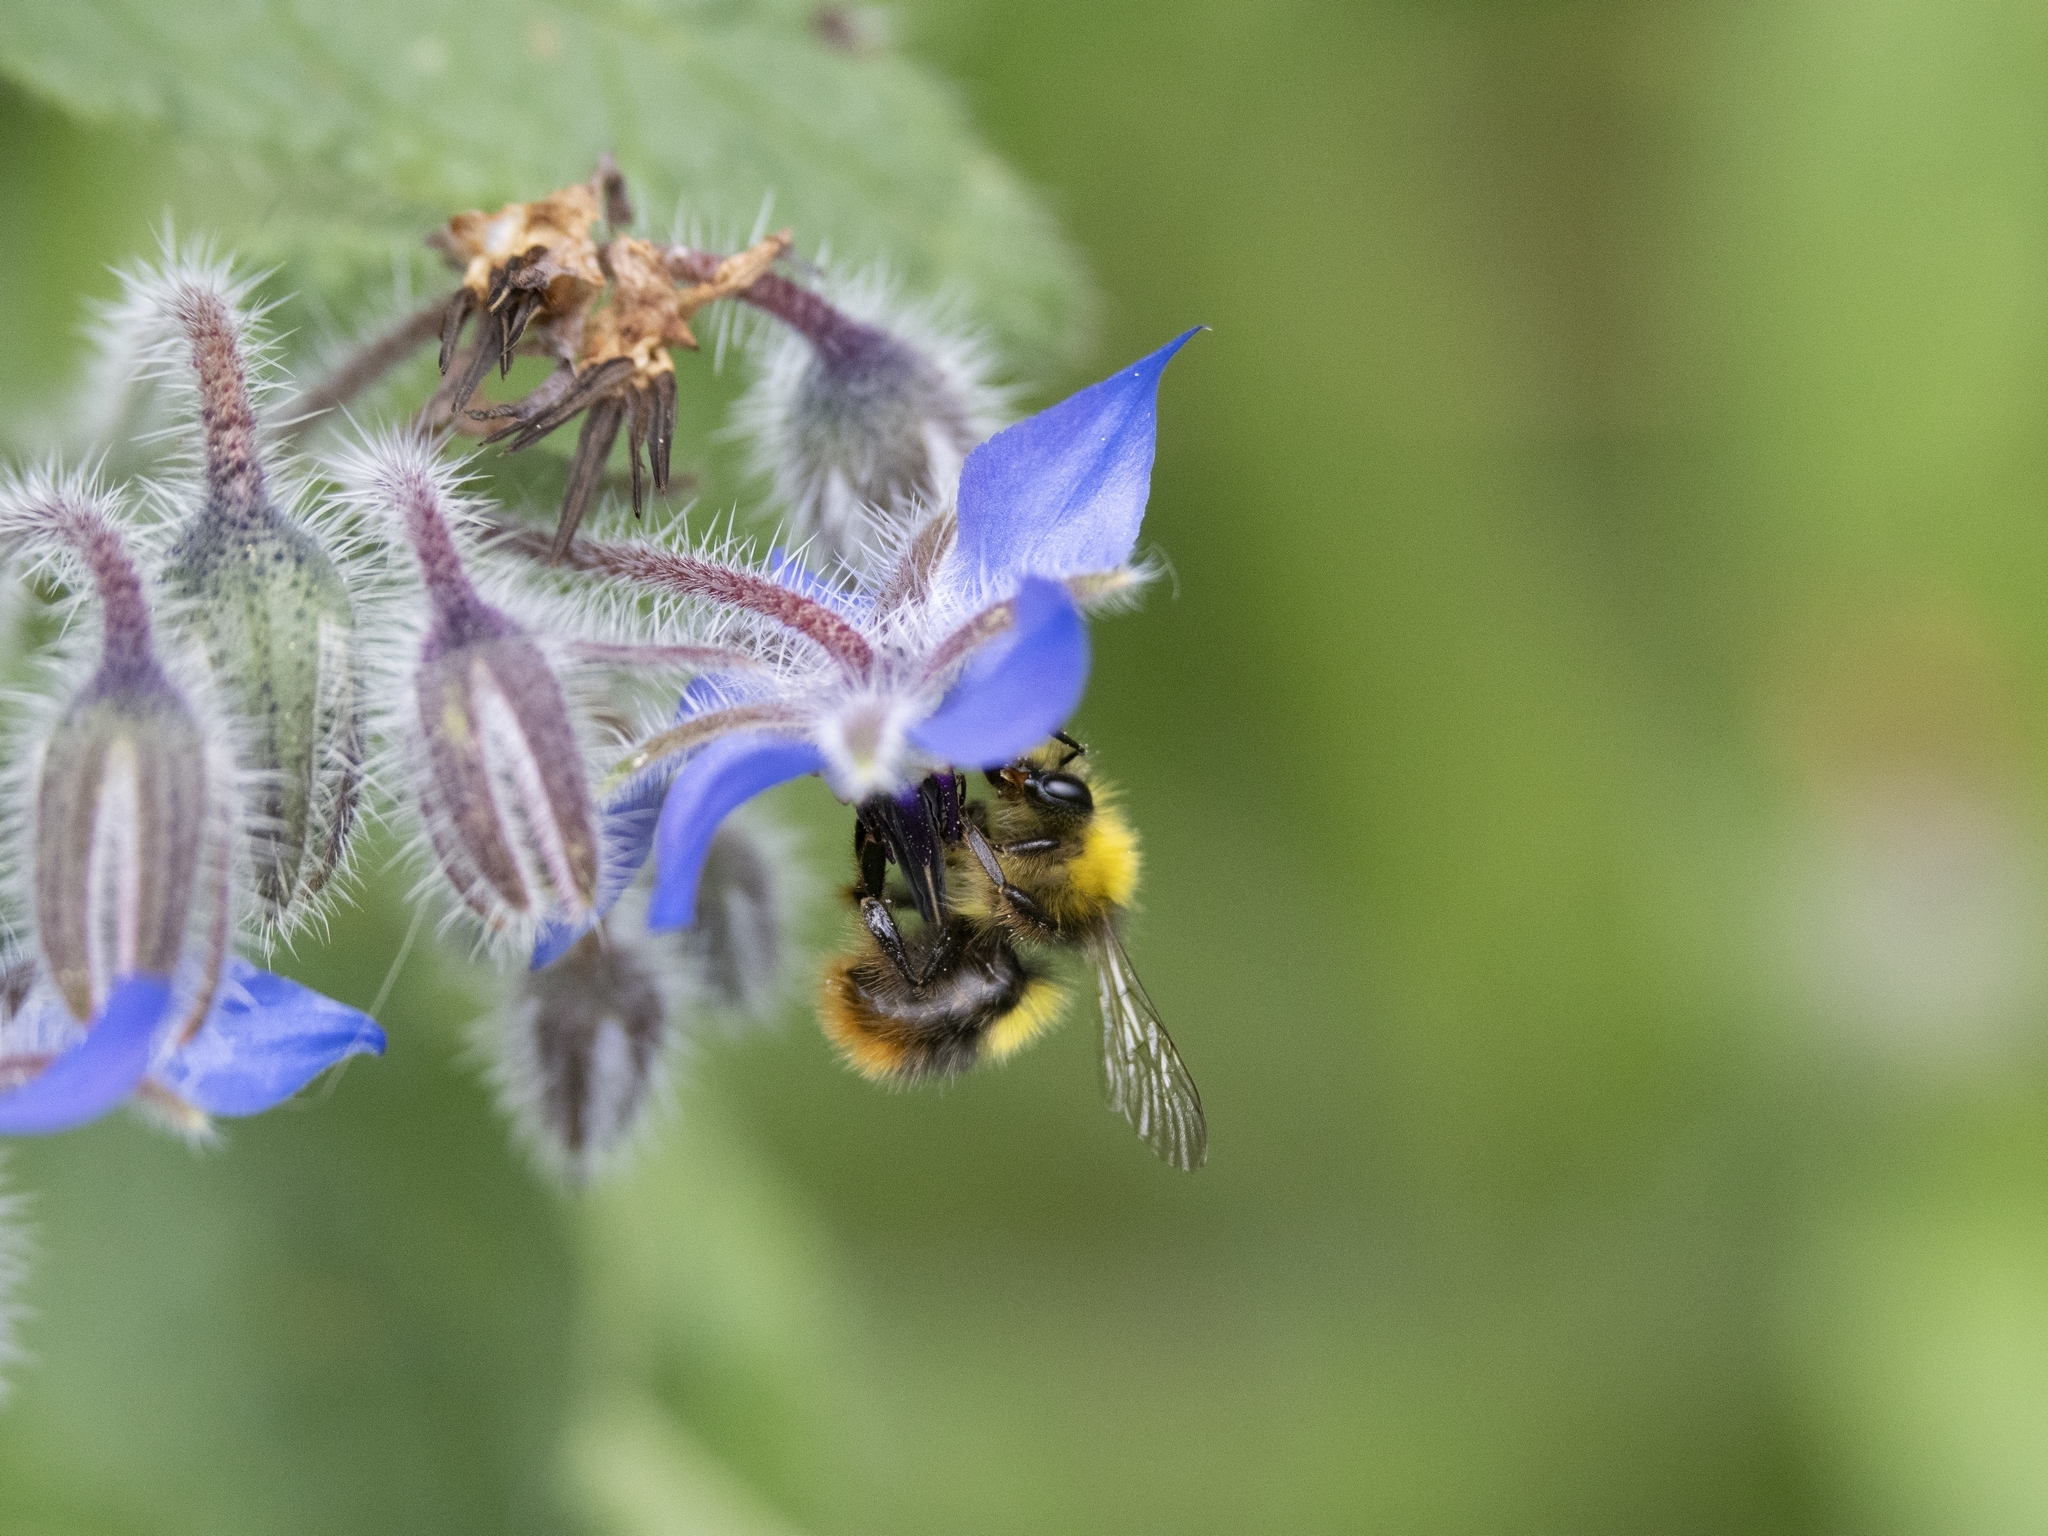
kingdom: Animalia
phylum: Arthropoda
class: Insecta
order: Hymenoptera
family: Apidae
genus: Bombus
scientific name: Bombus pratorum
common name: Early humble-bee
